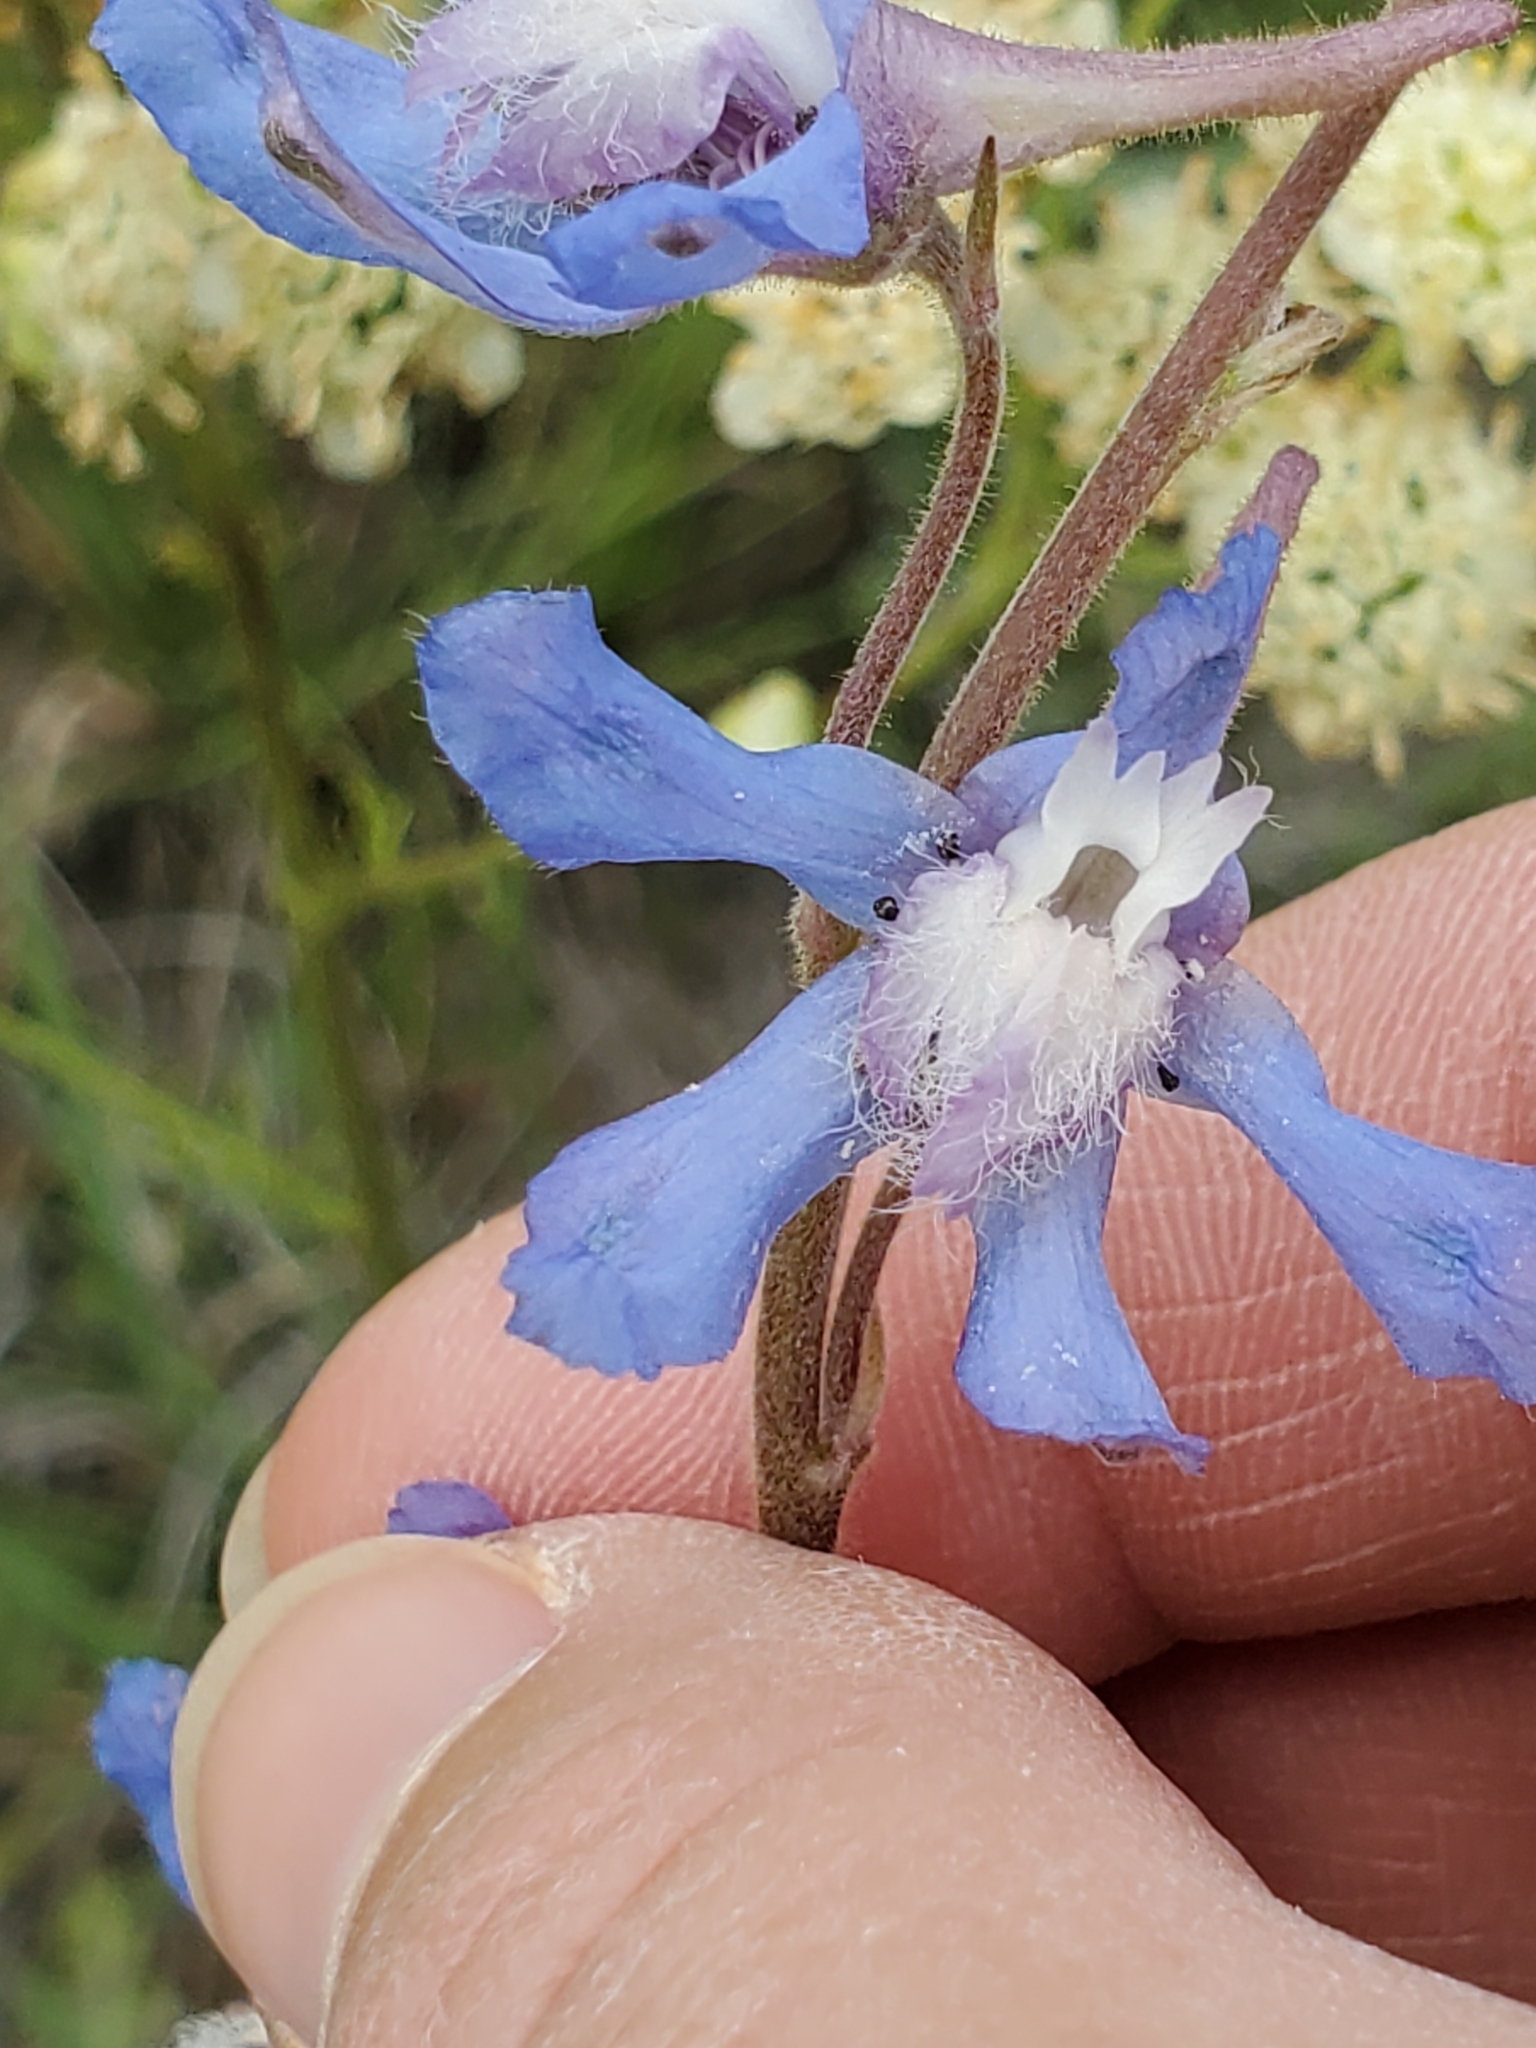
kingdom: Plantae
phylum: Tracheophyta
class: Magnoliopsida
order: Ranunculales
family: Ranunculaceae
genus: Delphinium
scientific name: Delphinium carolinianum
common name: Carolina larkspur
